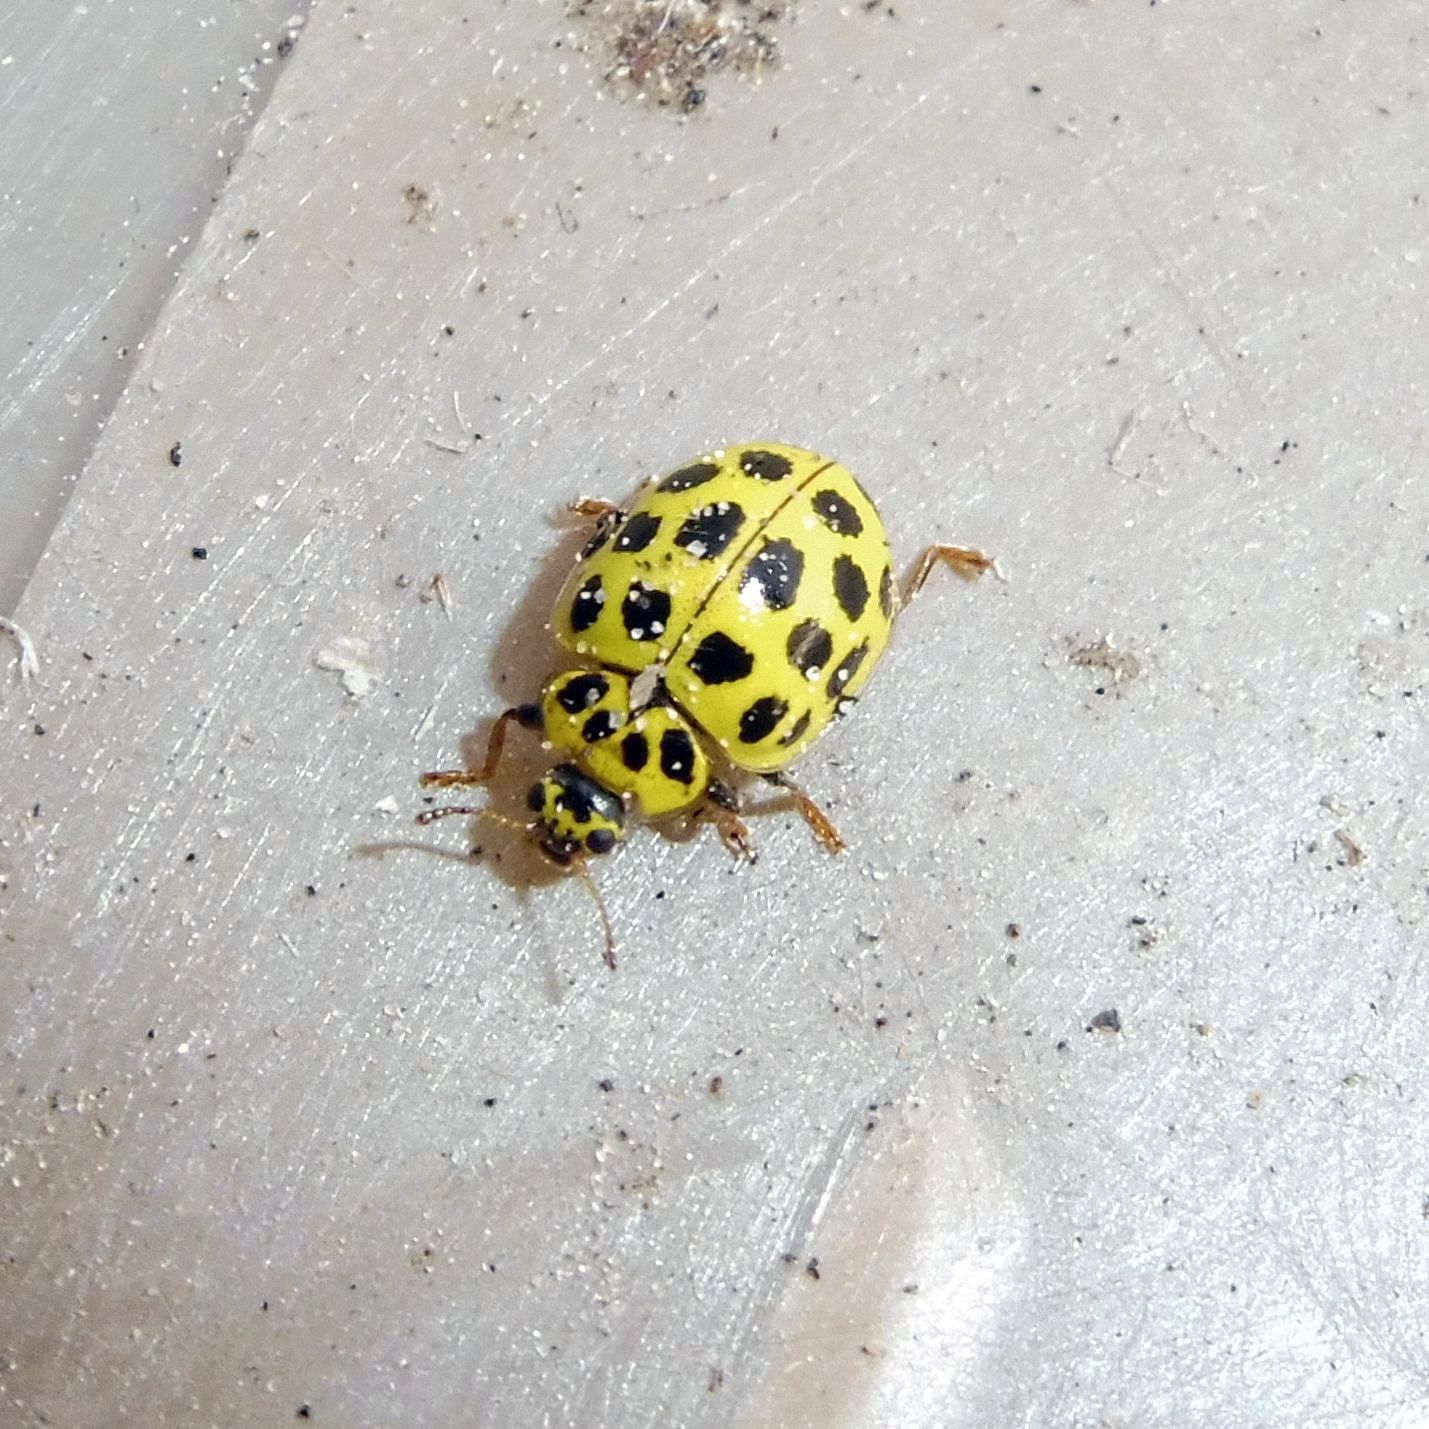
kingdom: Animalia
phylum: Arthropoda
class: Insecta
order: Coleoptera
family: Coccinellidae
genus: Psyllobora
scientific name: Psyllobora vigintiduopunctata
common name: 22-spot ladybird
